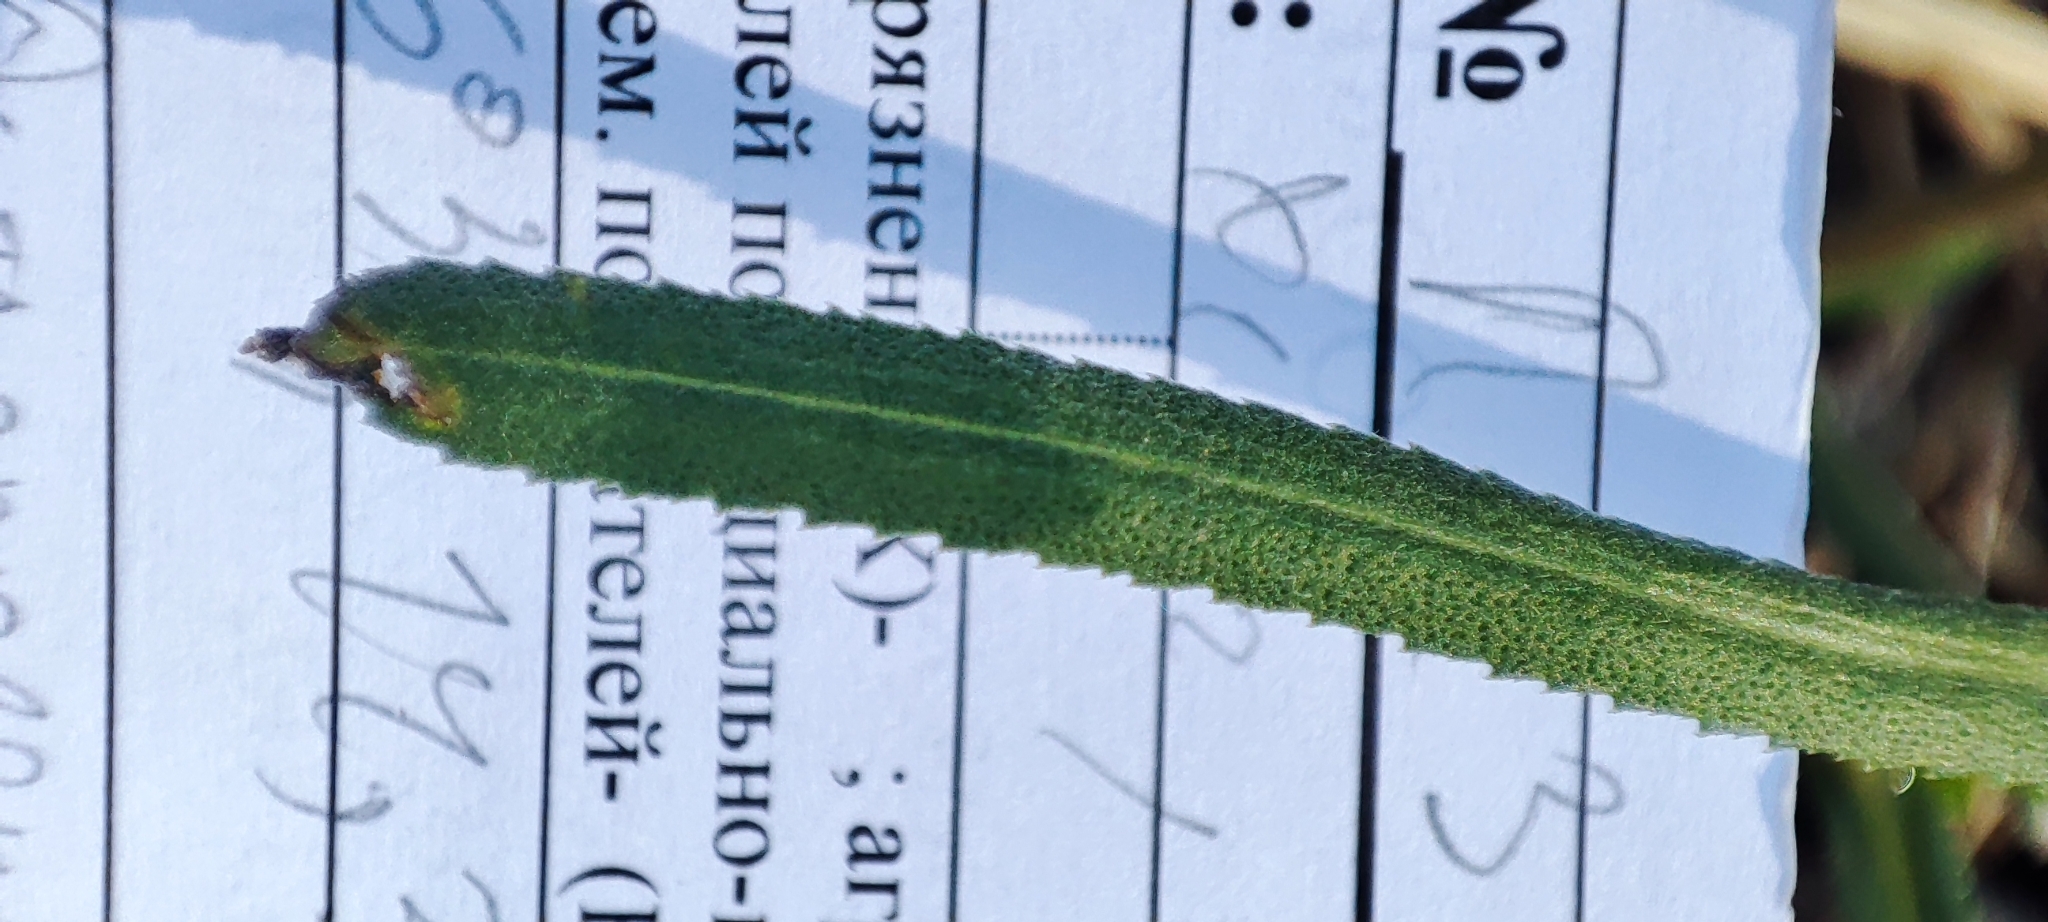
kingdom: Plantae
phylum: Tracheophyta
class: Magnoliopsida
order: Asterales
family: Asteraceae
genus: Achillea
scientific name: Achillea salicifolia
